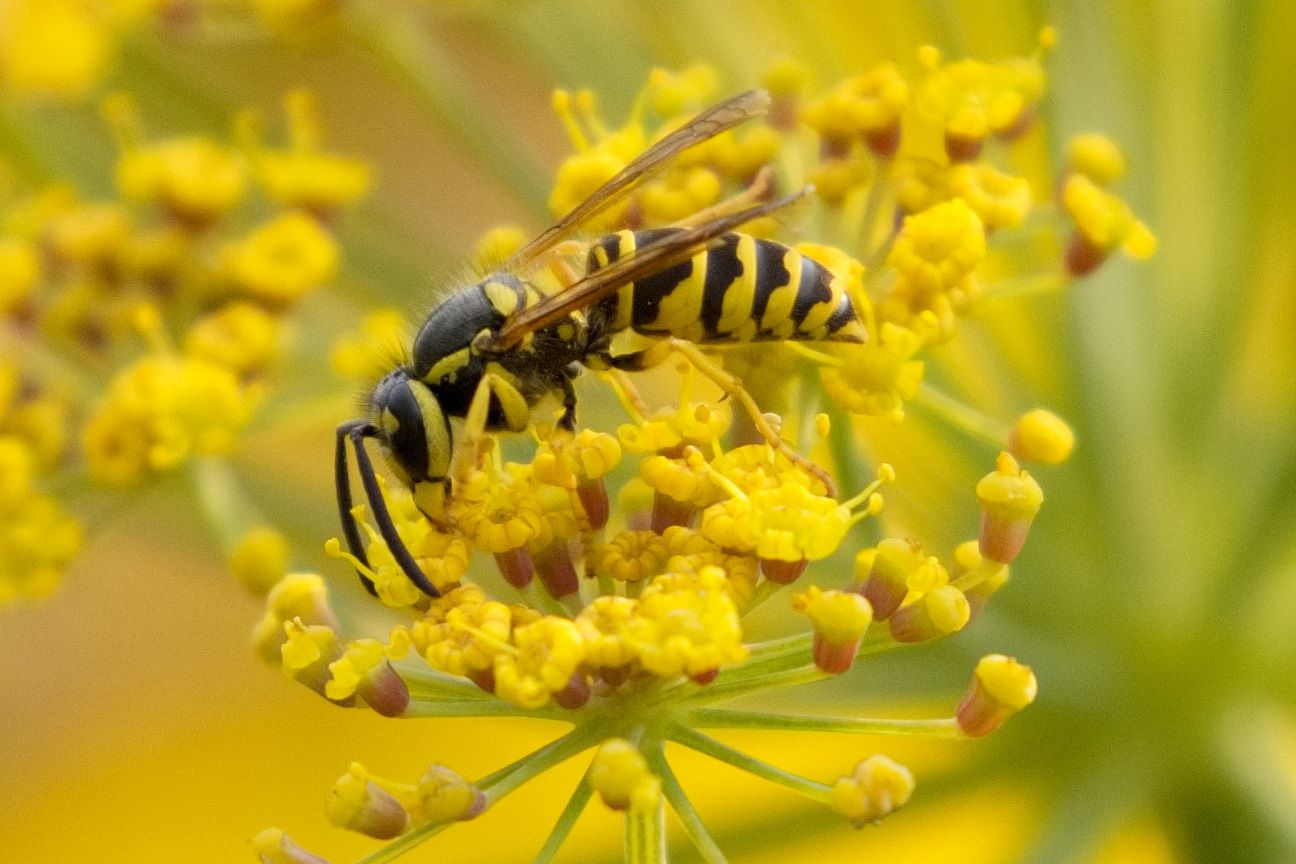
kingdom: Animalia
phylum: Arthropoda
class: Insecta
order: Hymenoptera
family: Vespidae
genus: Vespula
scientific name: Vespula maculifrons
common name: Eastern yellowjacket
